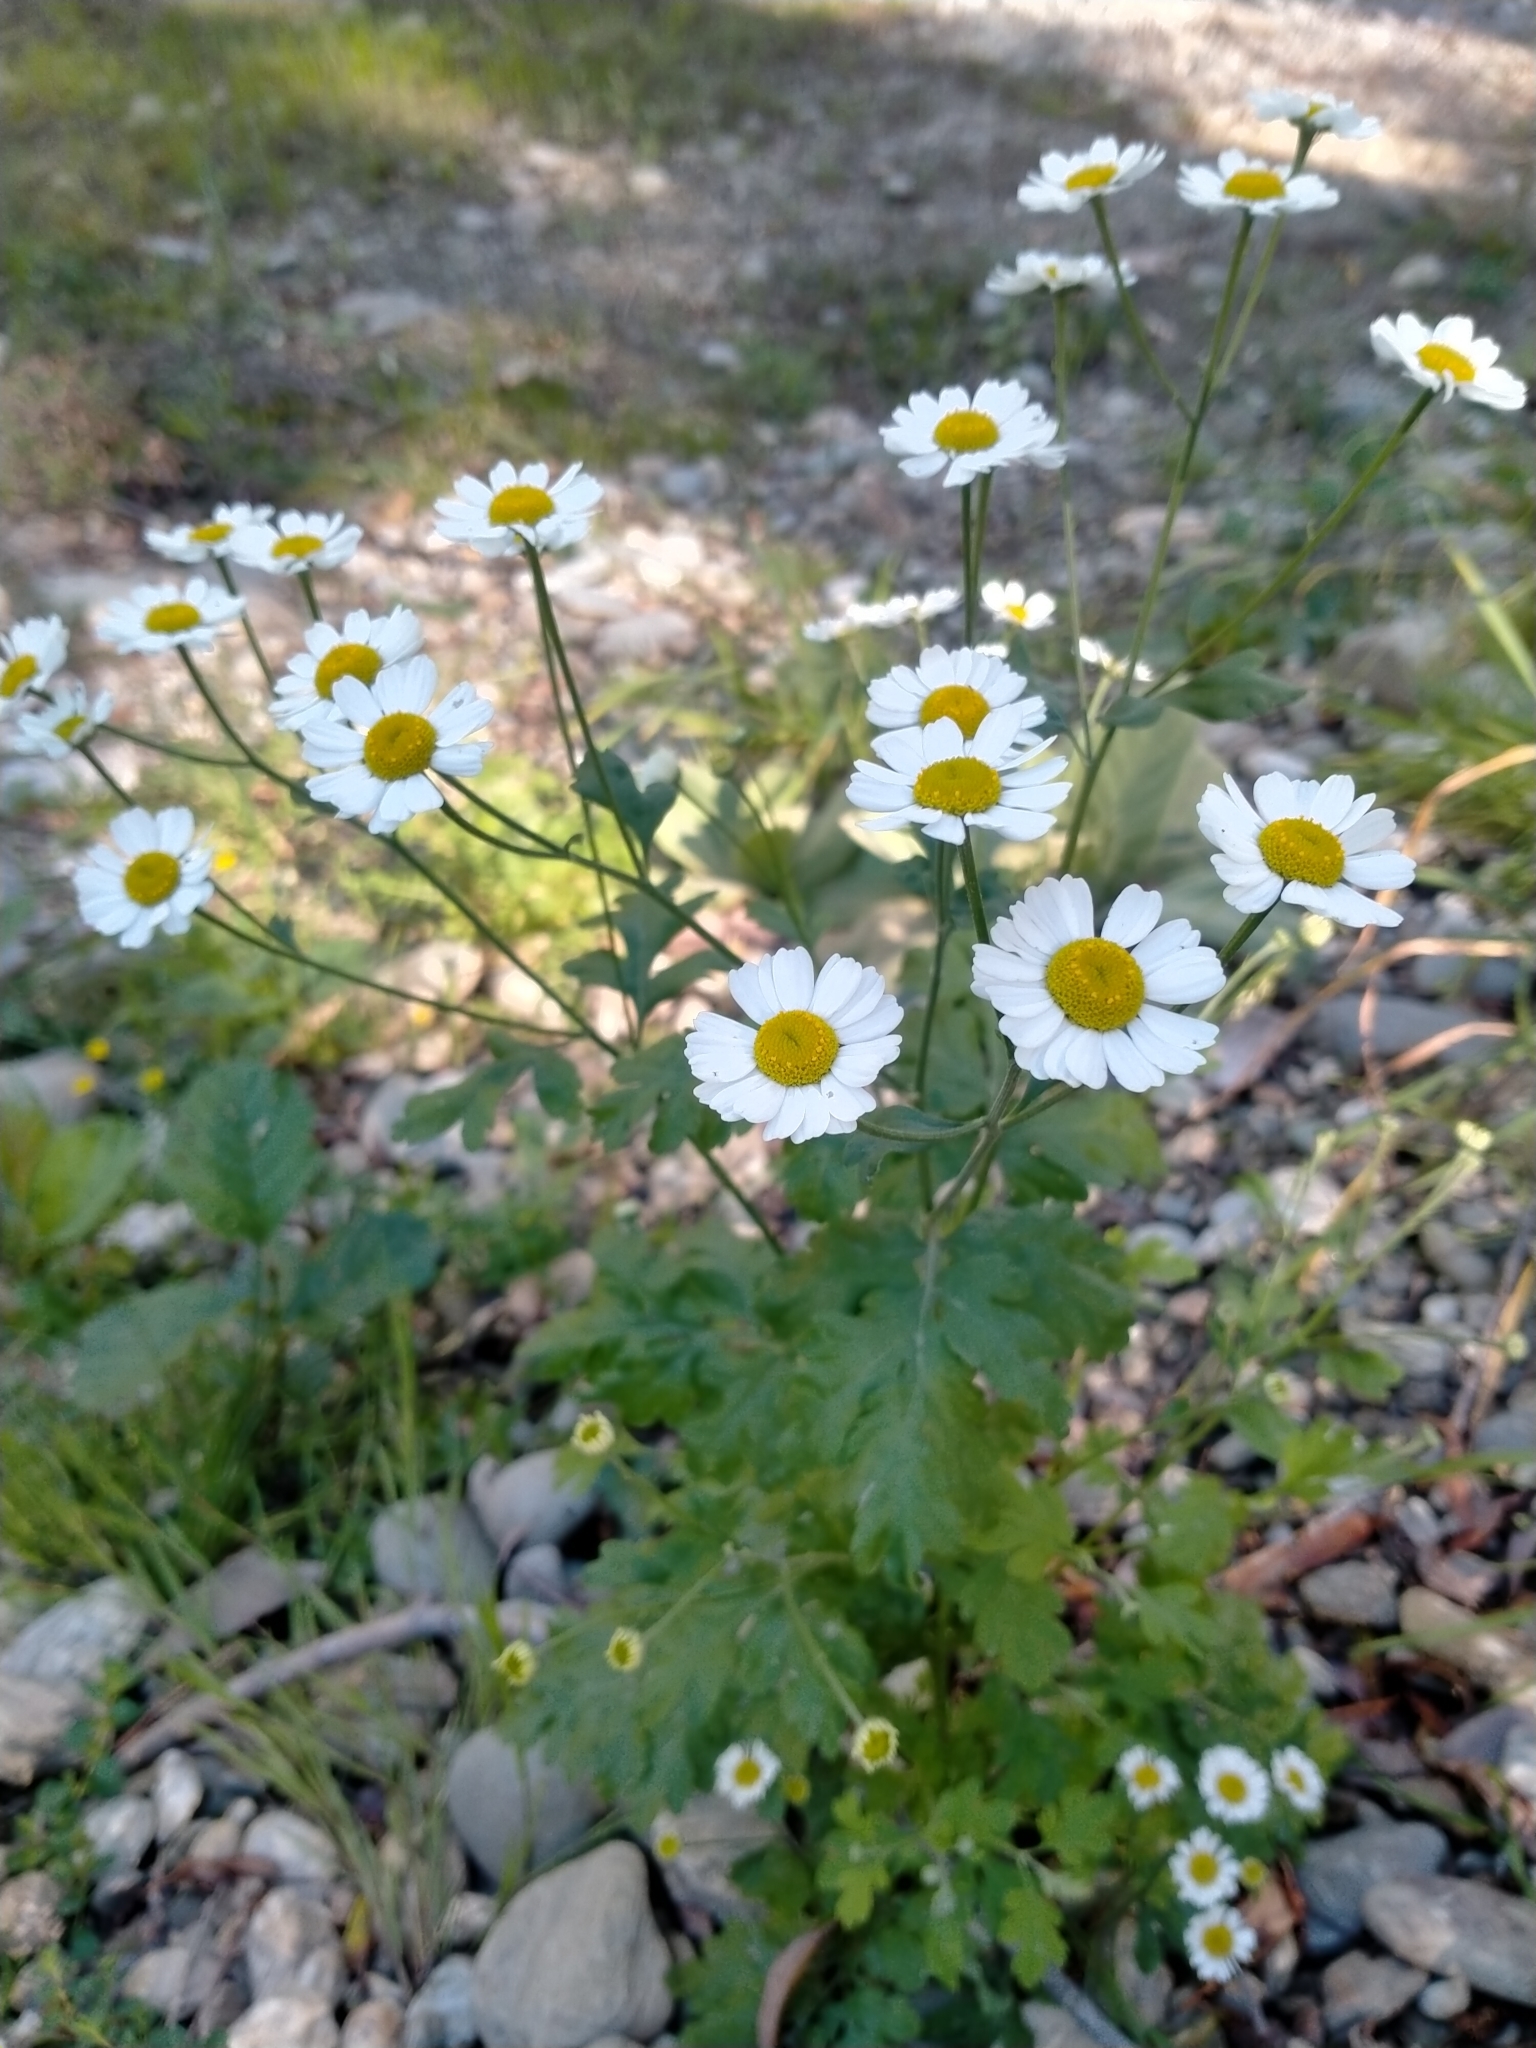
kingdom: Plantae
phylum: Tracheophyta
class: Magnoliopsida
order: Asterales
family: Asteraceae
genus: Tanacetum
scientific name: Tanacetum parthenium
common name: Feverfew
